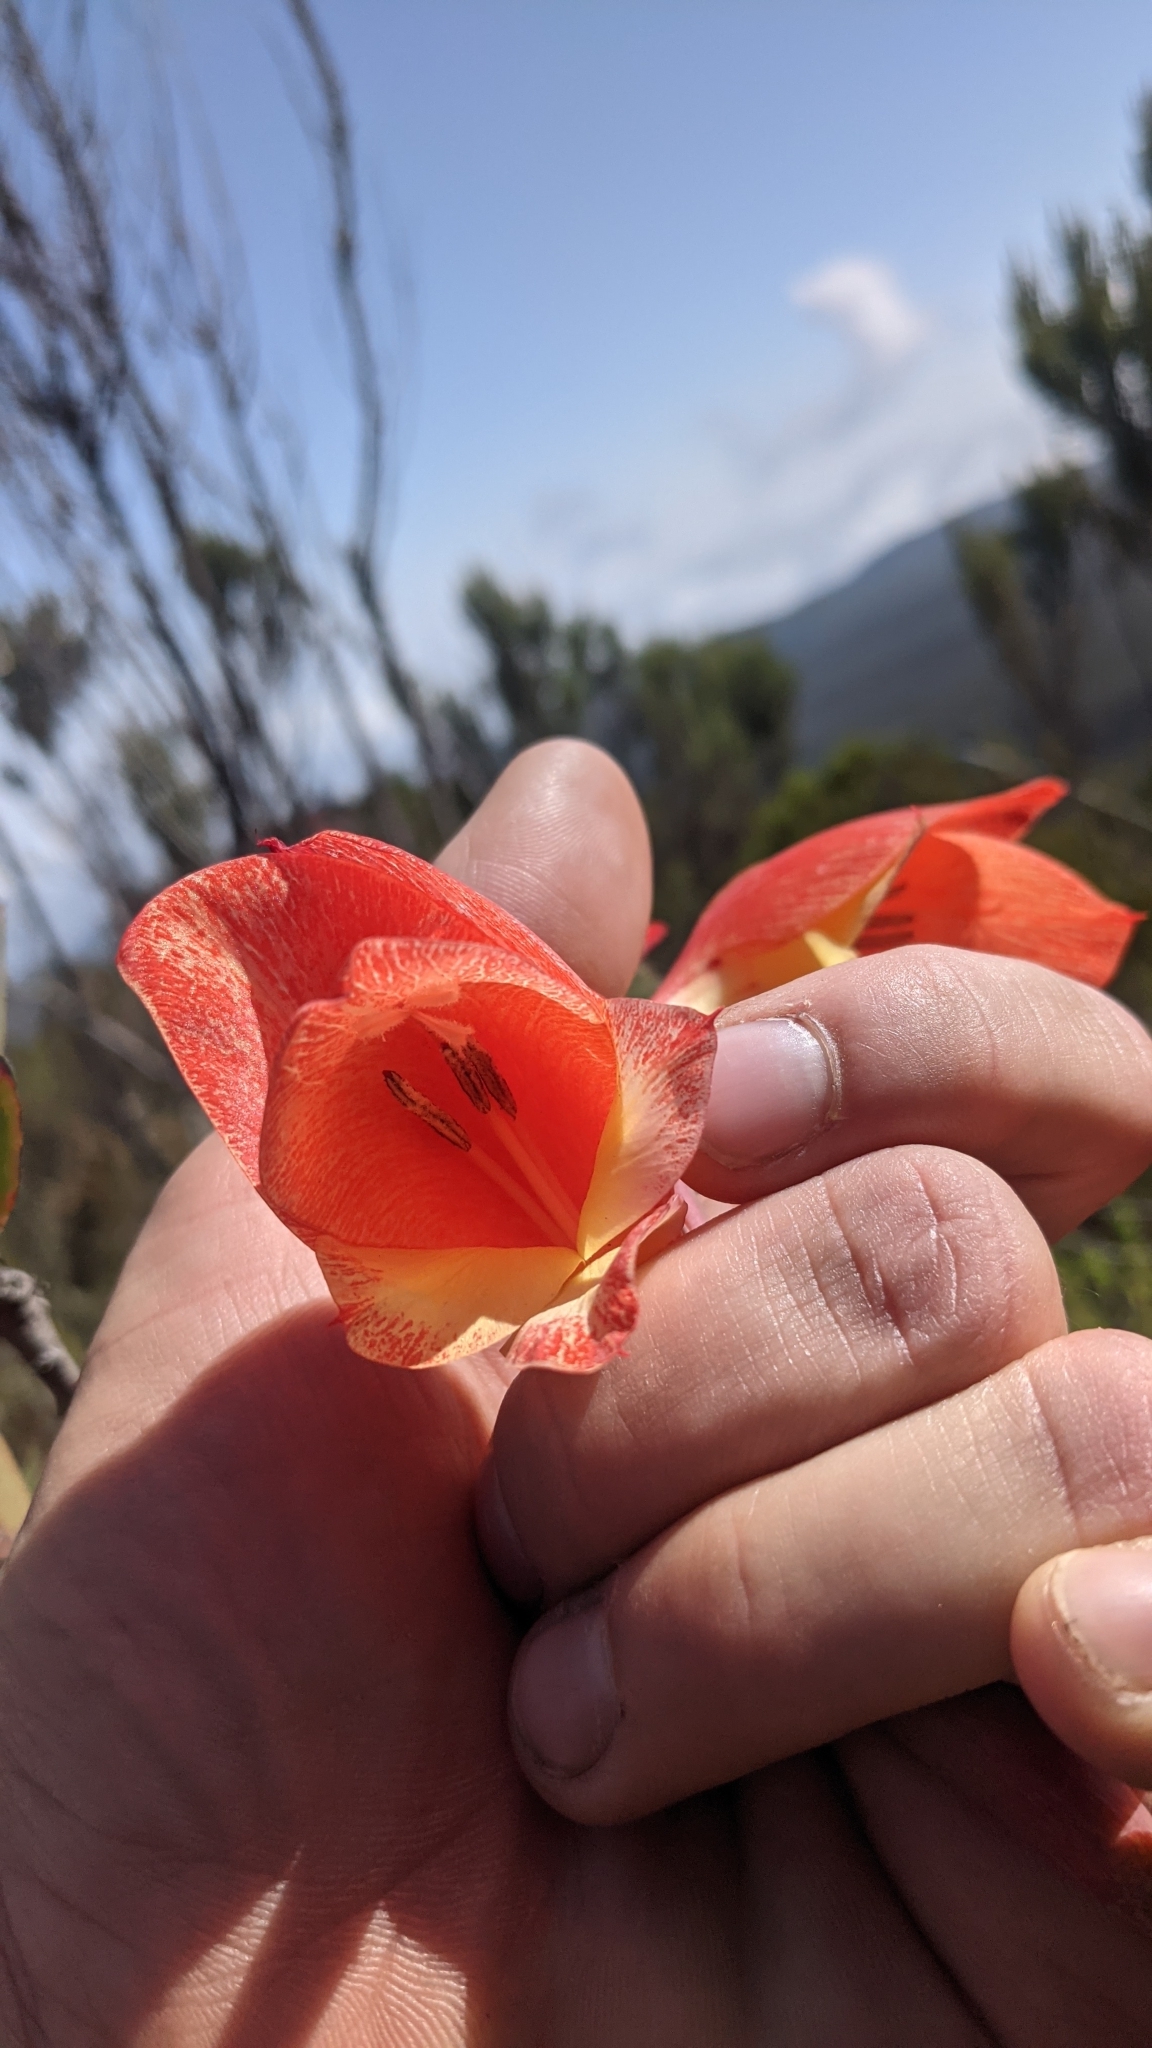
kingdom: Plantae
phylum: Tracheophyta
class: Liliopsida
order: Asparagales
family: Iridaceae
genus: Gladiolus
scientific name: Gladiolus dalenii
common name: Cornflag
